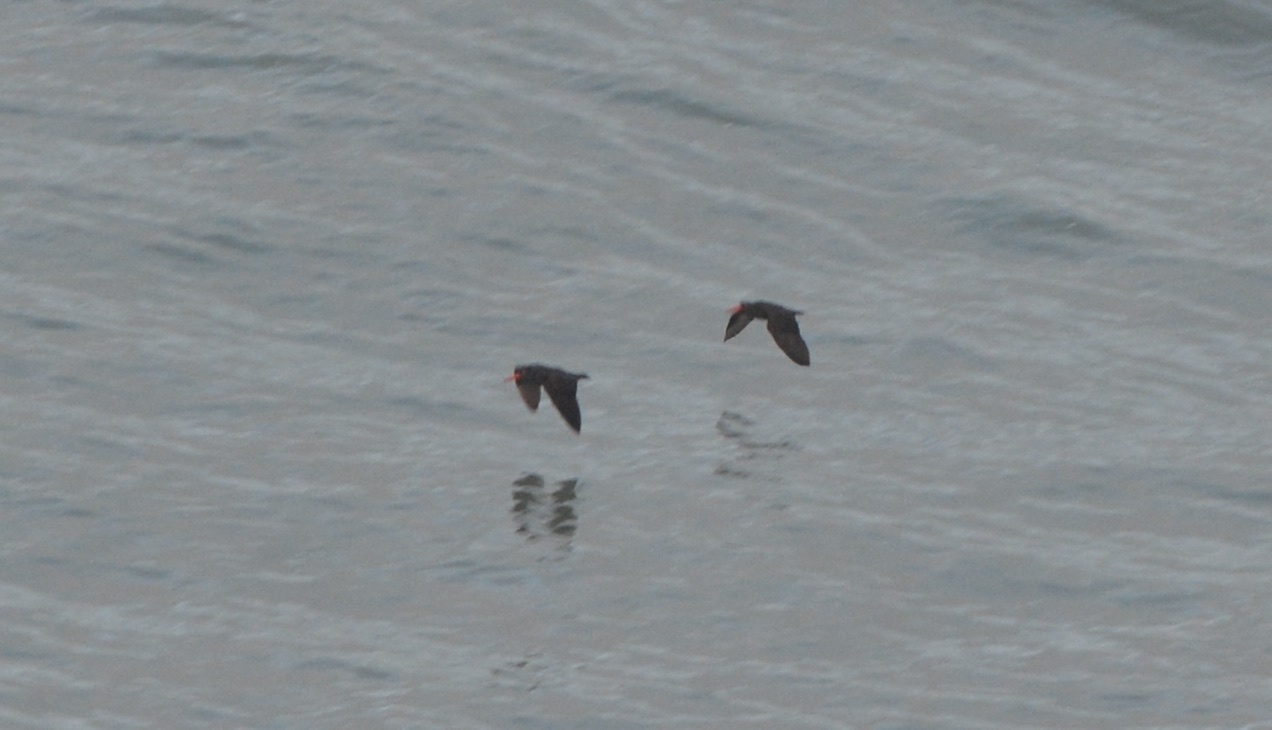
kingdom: Animalia
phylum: Chordata
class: Aves
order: Charadriiformes
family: Haematopodidae
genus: Haematopus
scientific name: Haematopus bachmani
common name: Black oystercatcher
